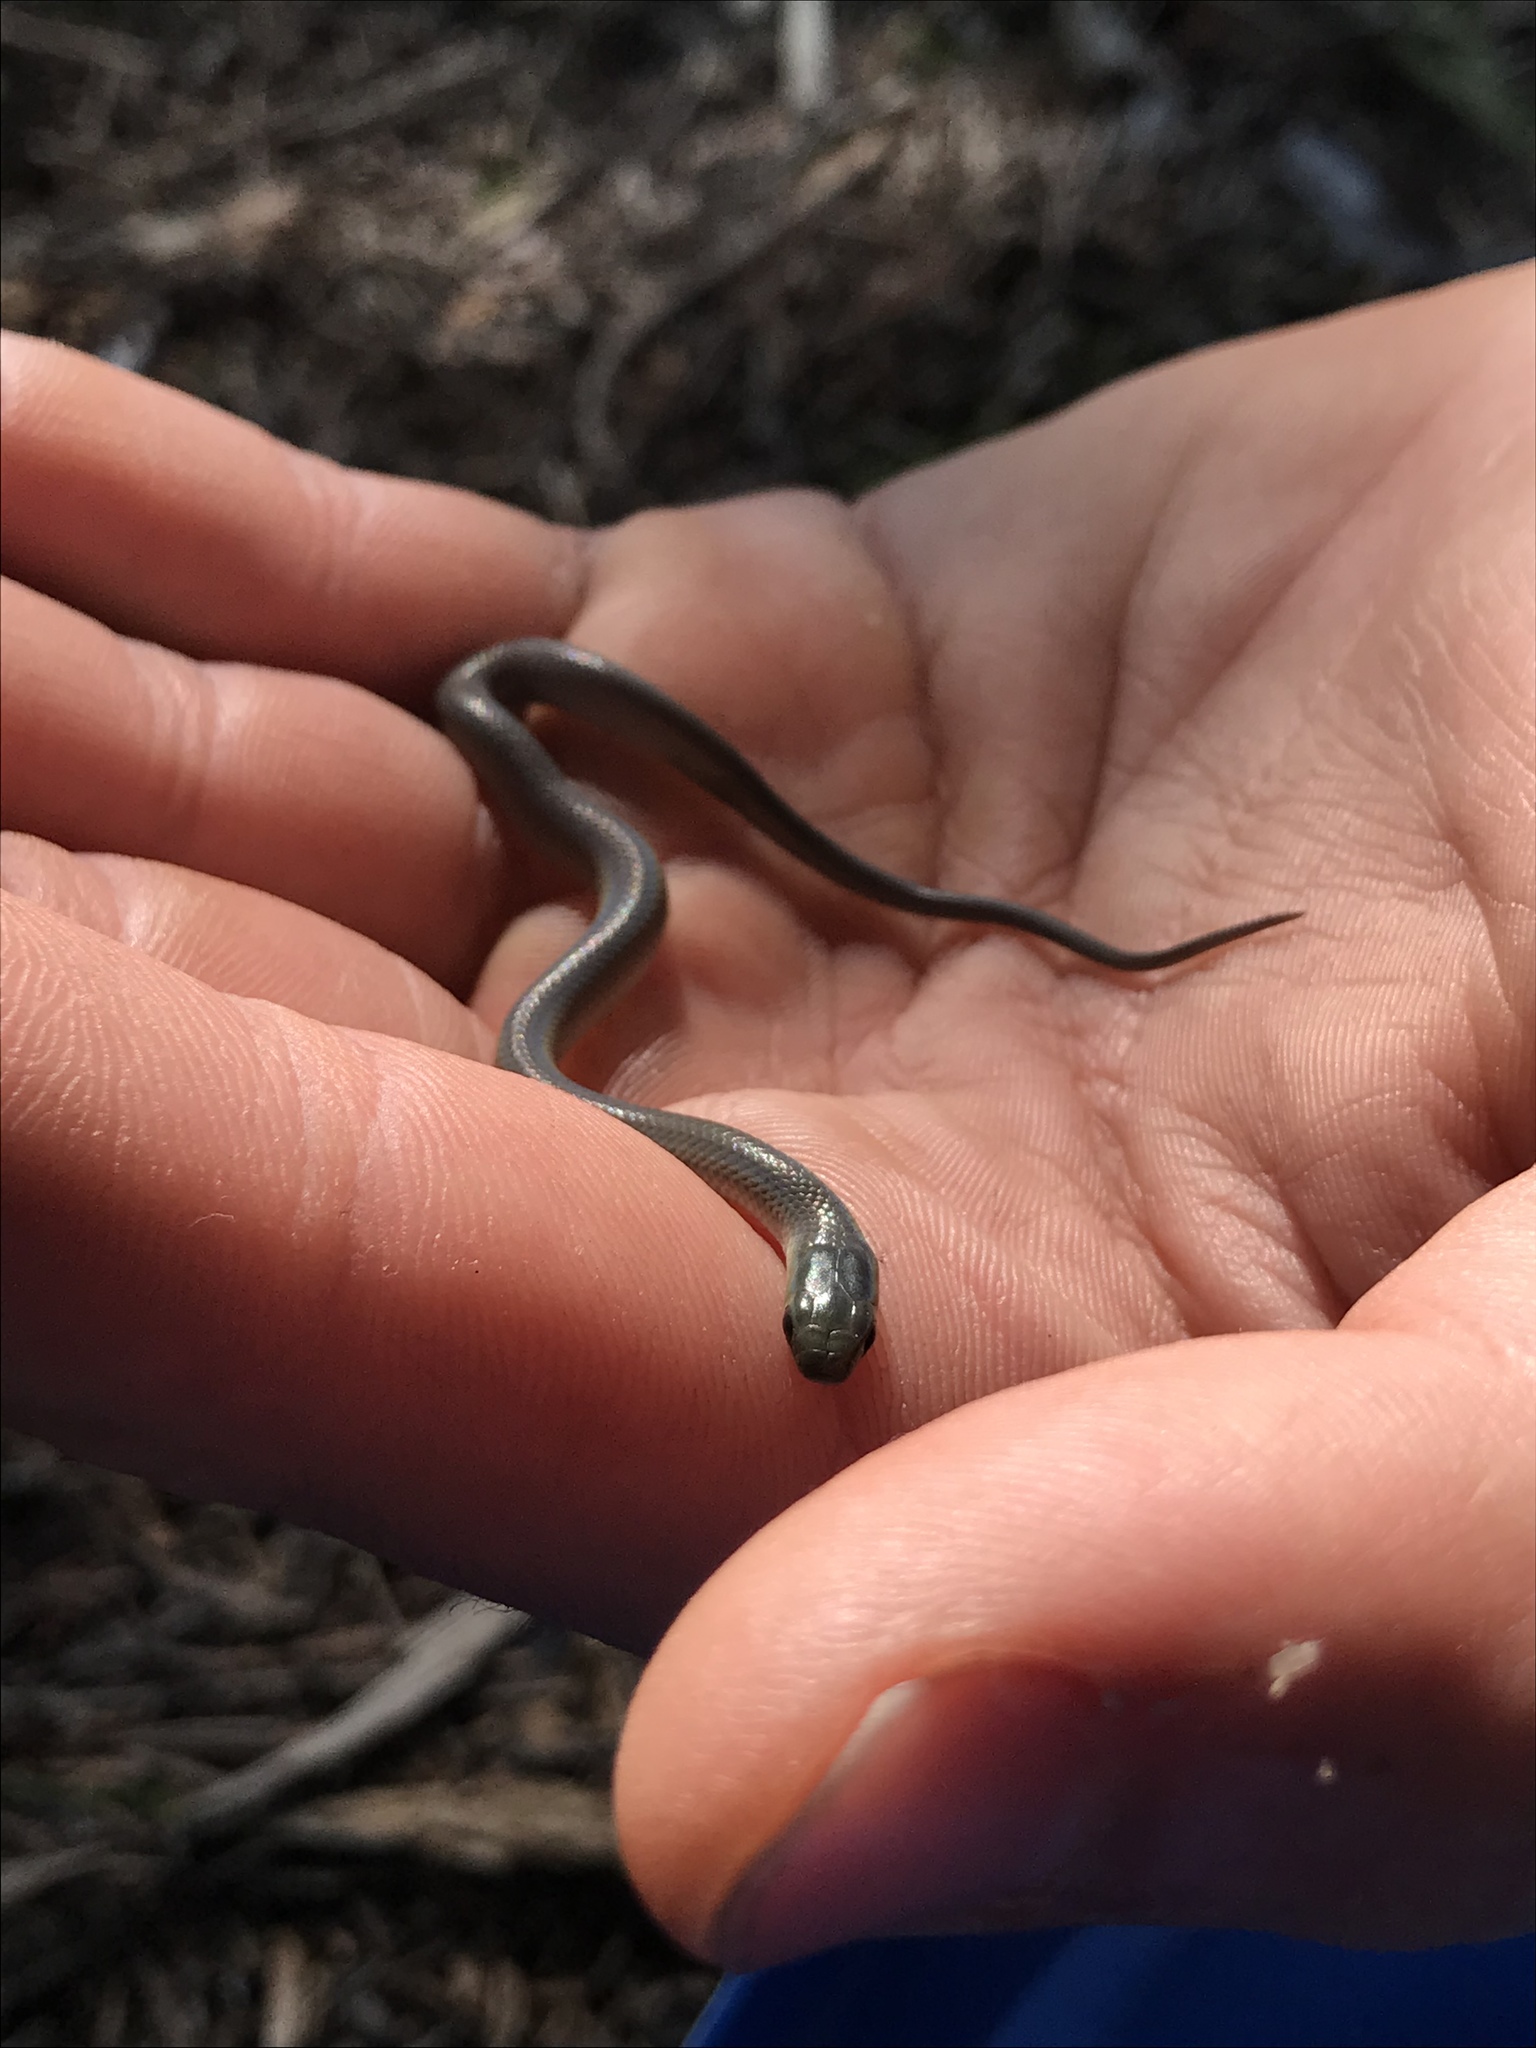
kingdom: Animalia
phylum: Chordata
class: Squamata
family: Colubridae
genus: Opheodrys
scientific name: Opheodrys vernalis
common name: Smooth green snake
